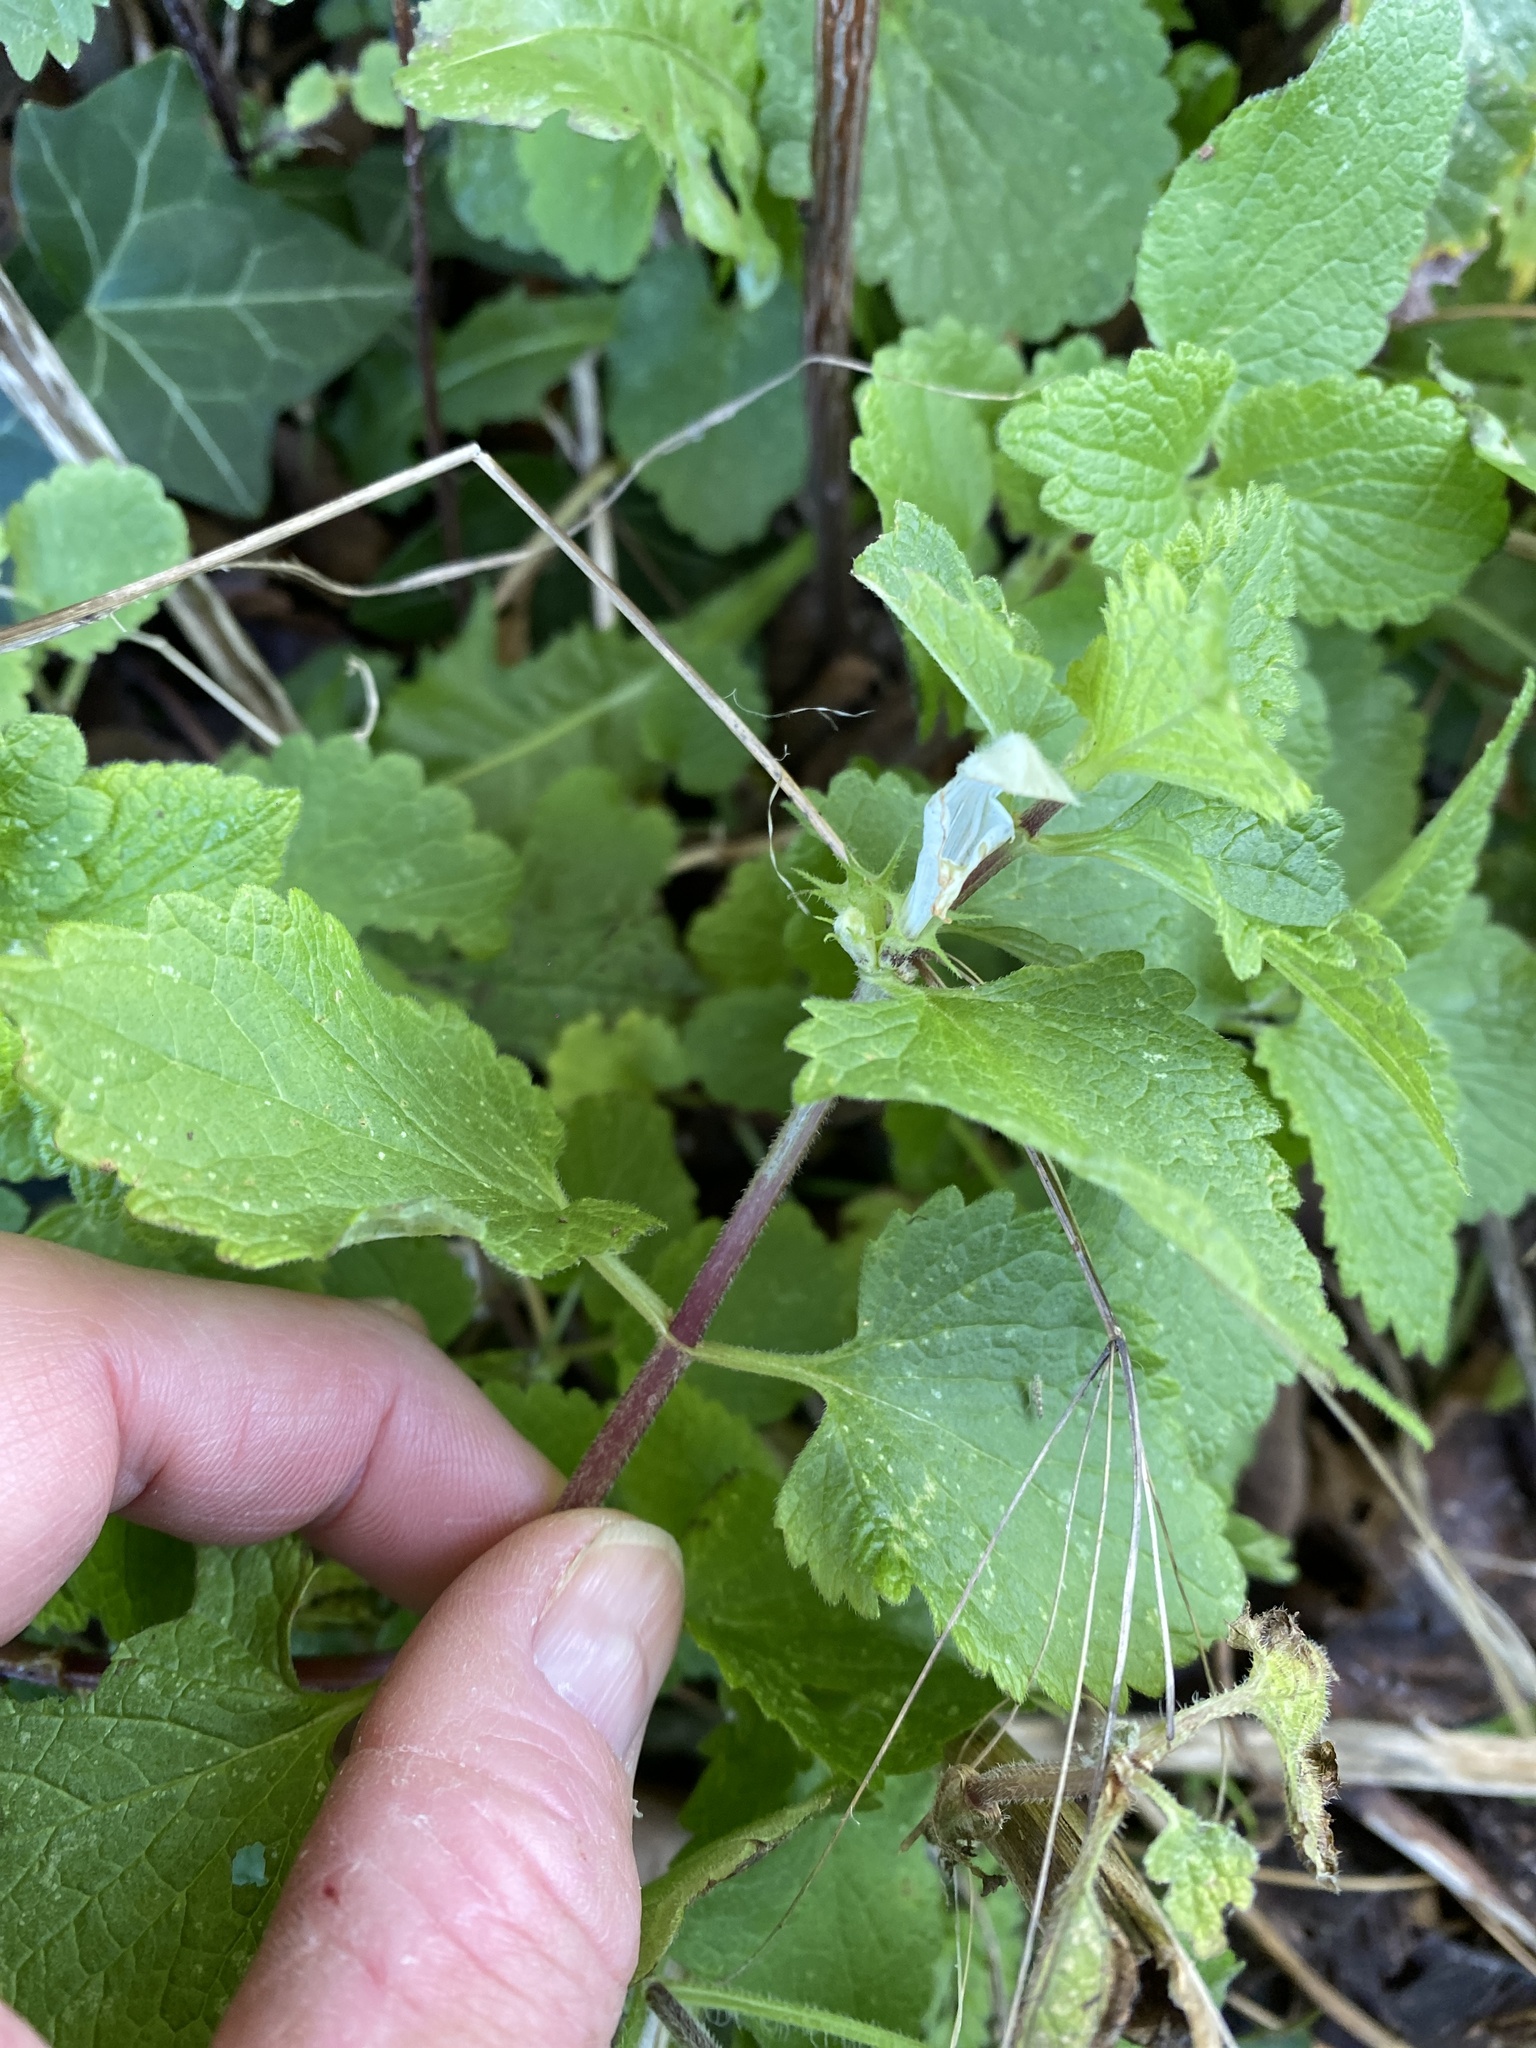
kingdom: Plantae
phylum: Tracheophyta
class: Magnoliopsida
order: Lamiales
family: Lamiaceae
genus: Lamium
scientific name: Lamium album
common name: White dead-nettle
